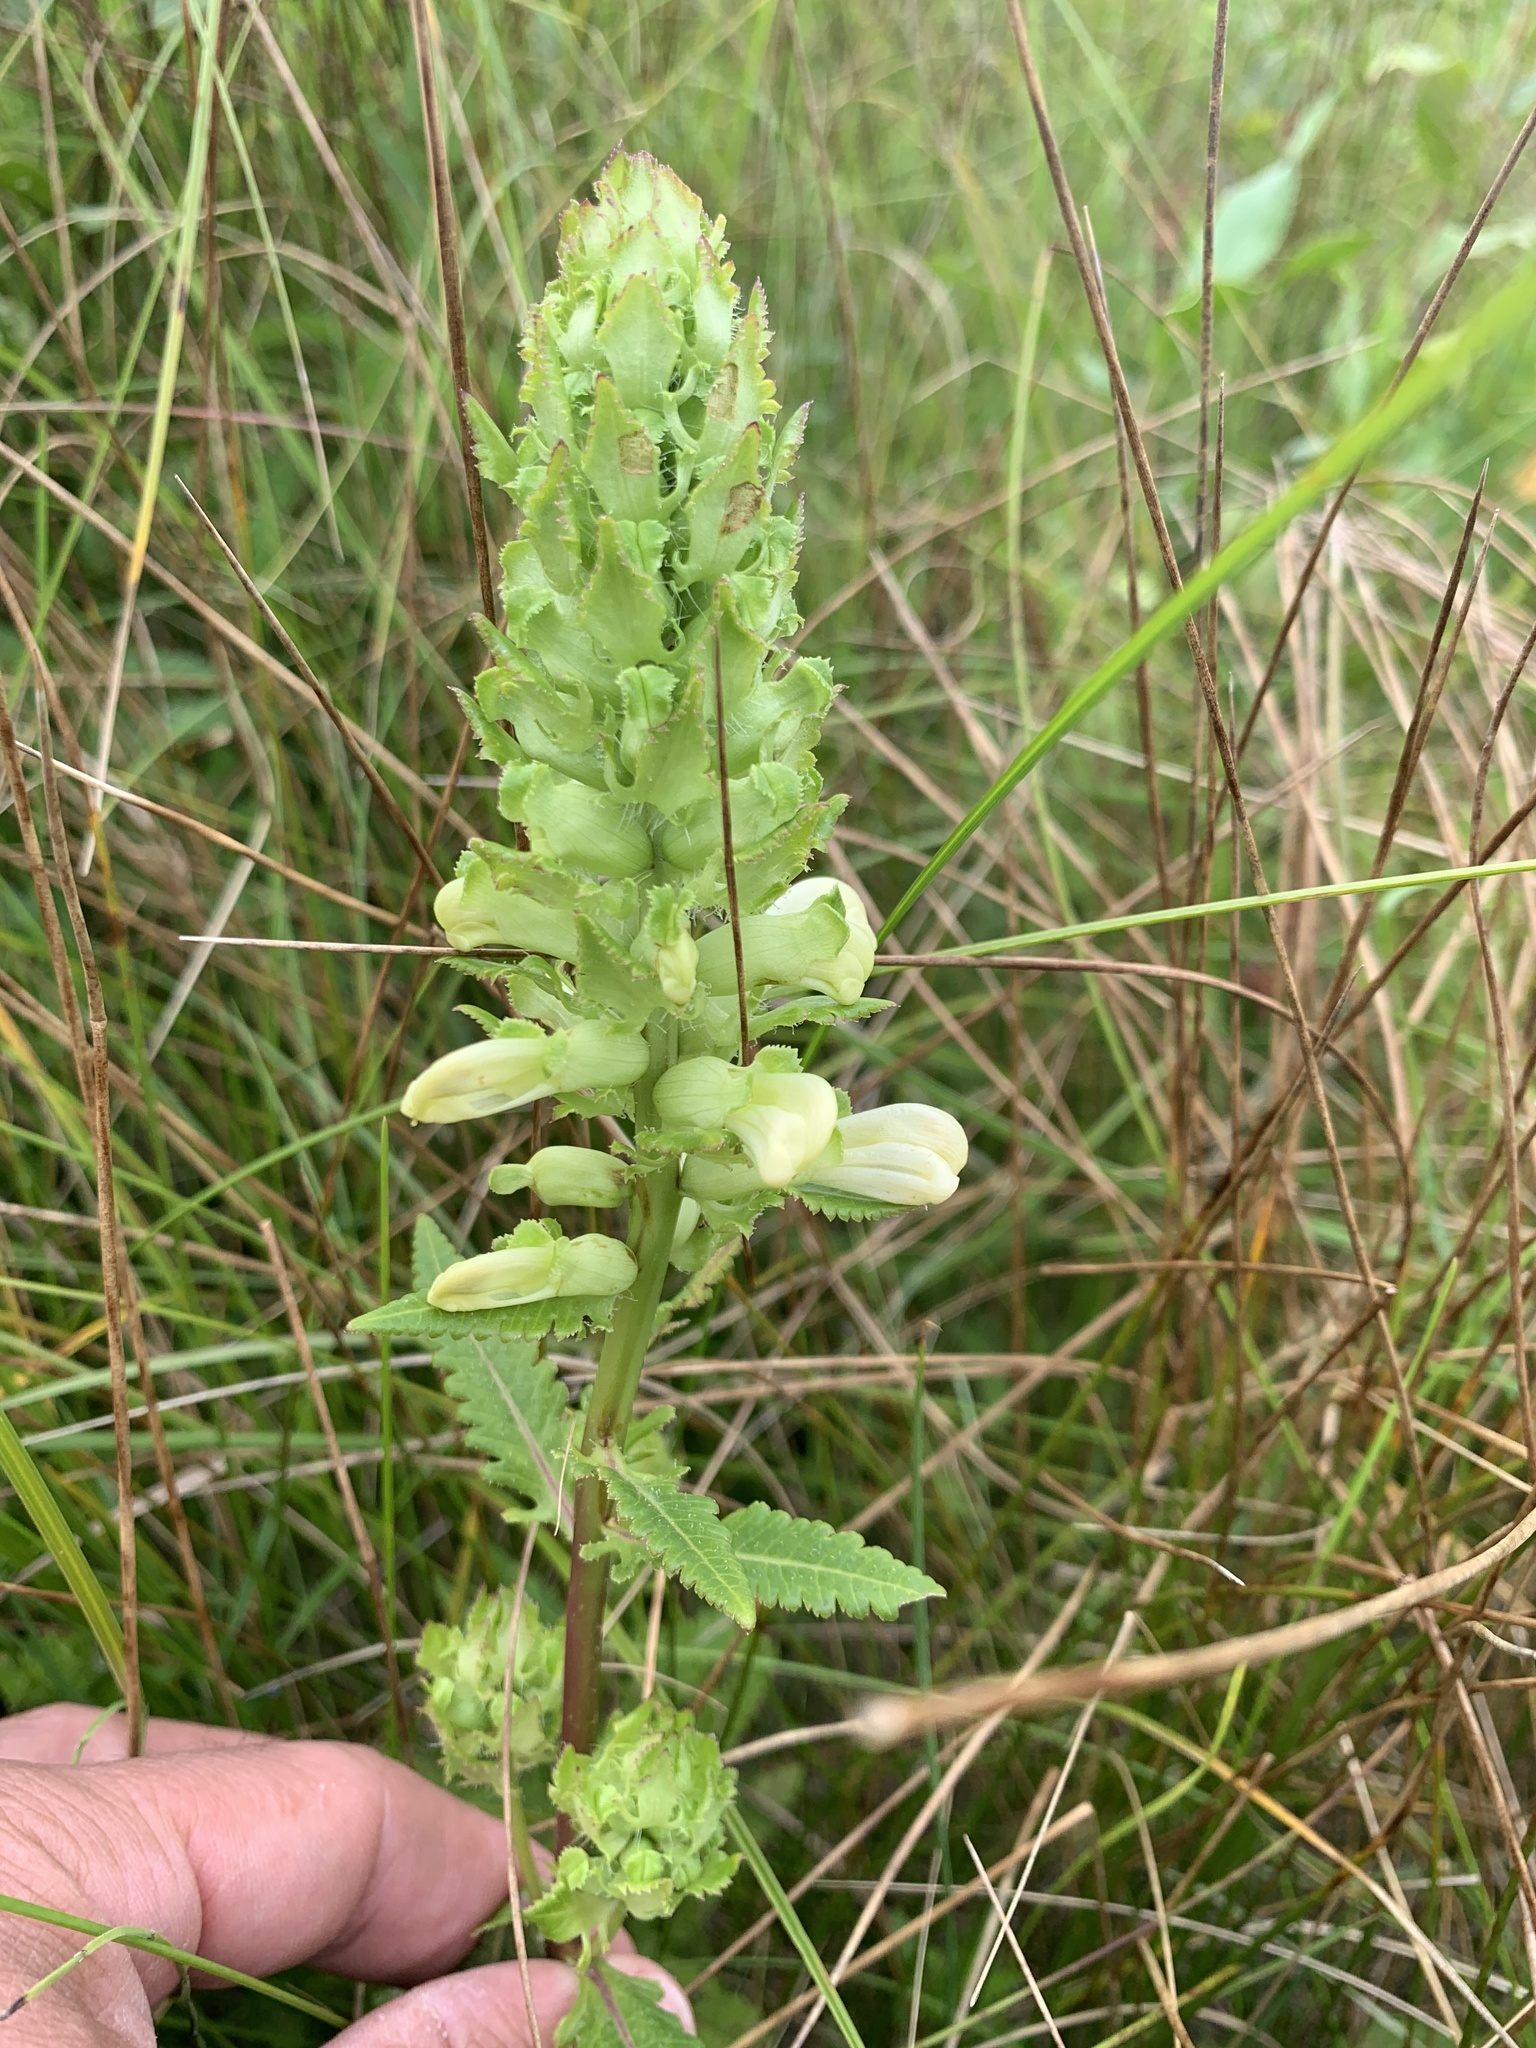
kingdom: Plantae
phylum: Tracheophyta
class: Magnoliopsida
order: Lamiales
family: Orobanchaceae
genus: Pedicularis
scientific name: Pedicularis lanceolata
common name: Swamp lousewort
